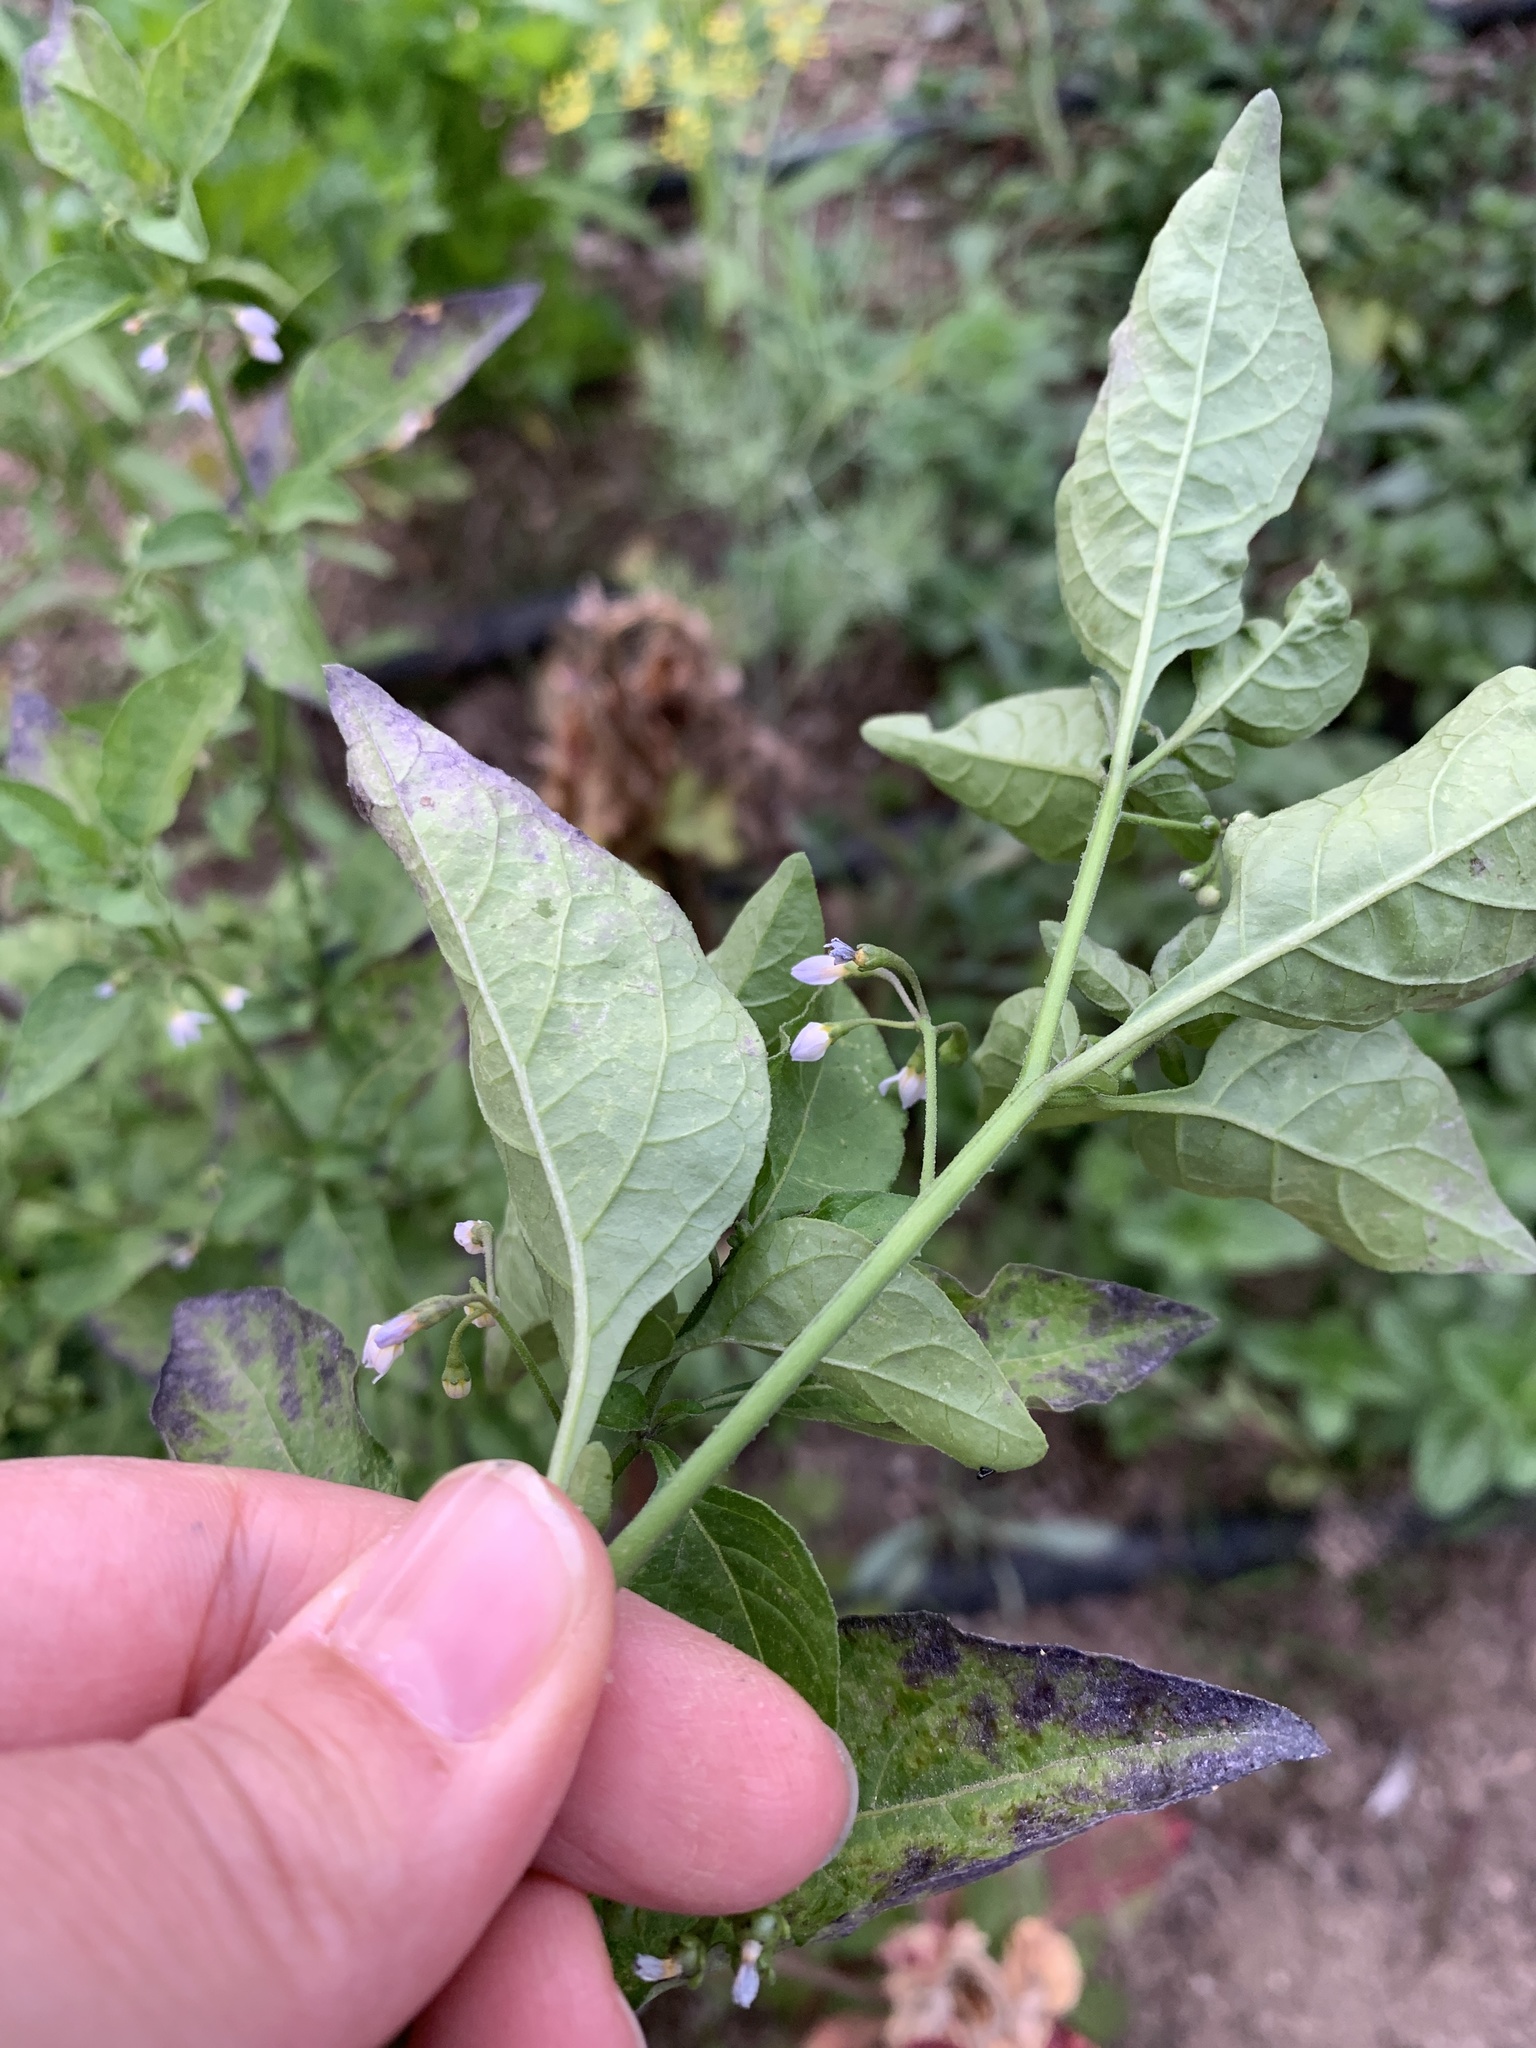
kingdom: Plantae
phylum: Tracheophyta
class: Magnoliopsida
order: Solanales
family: Solanaceae
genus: Solanum
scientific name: Solanum americanum
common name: American black nightshade
